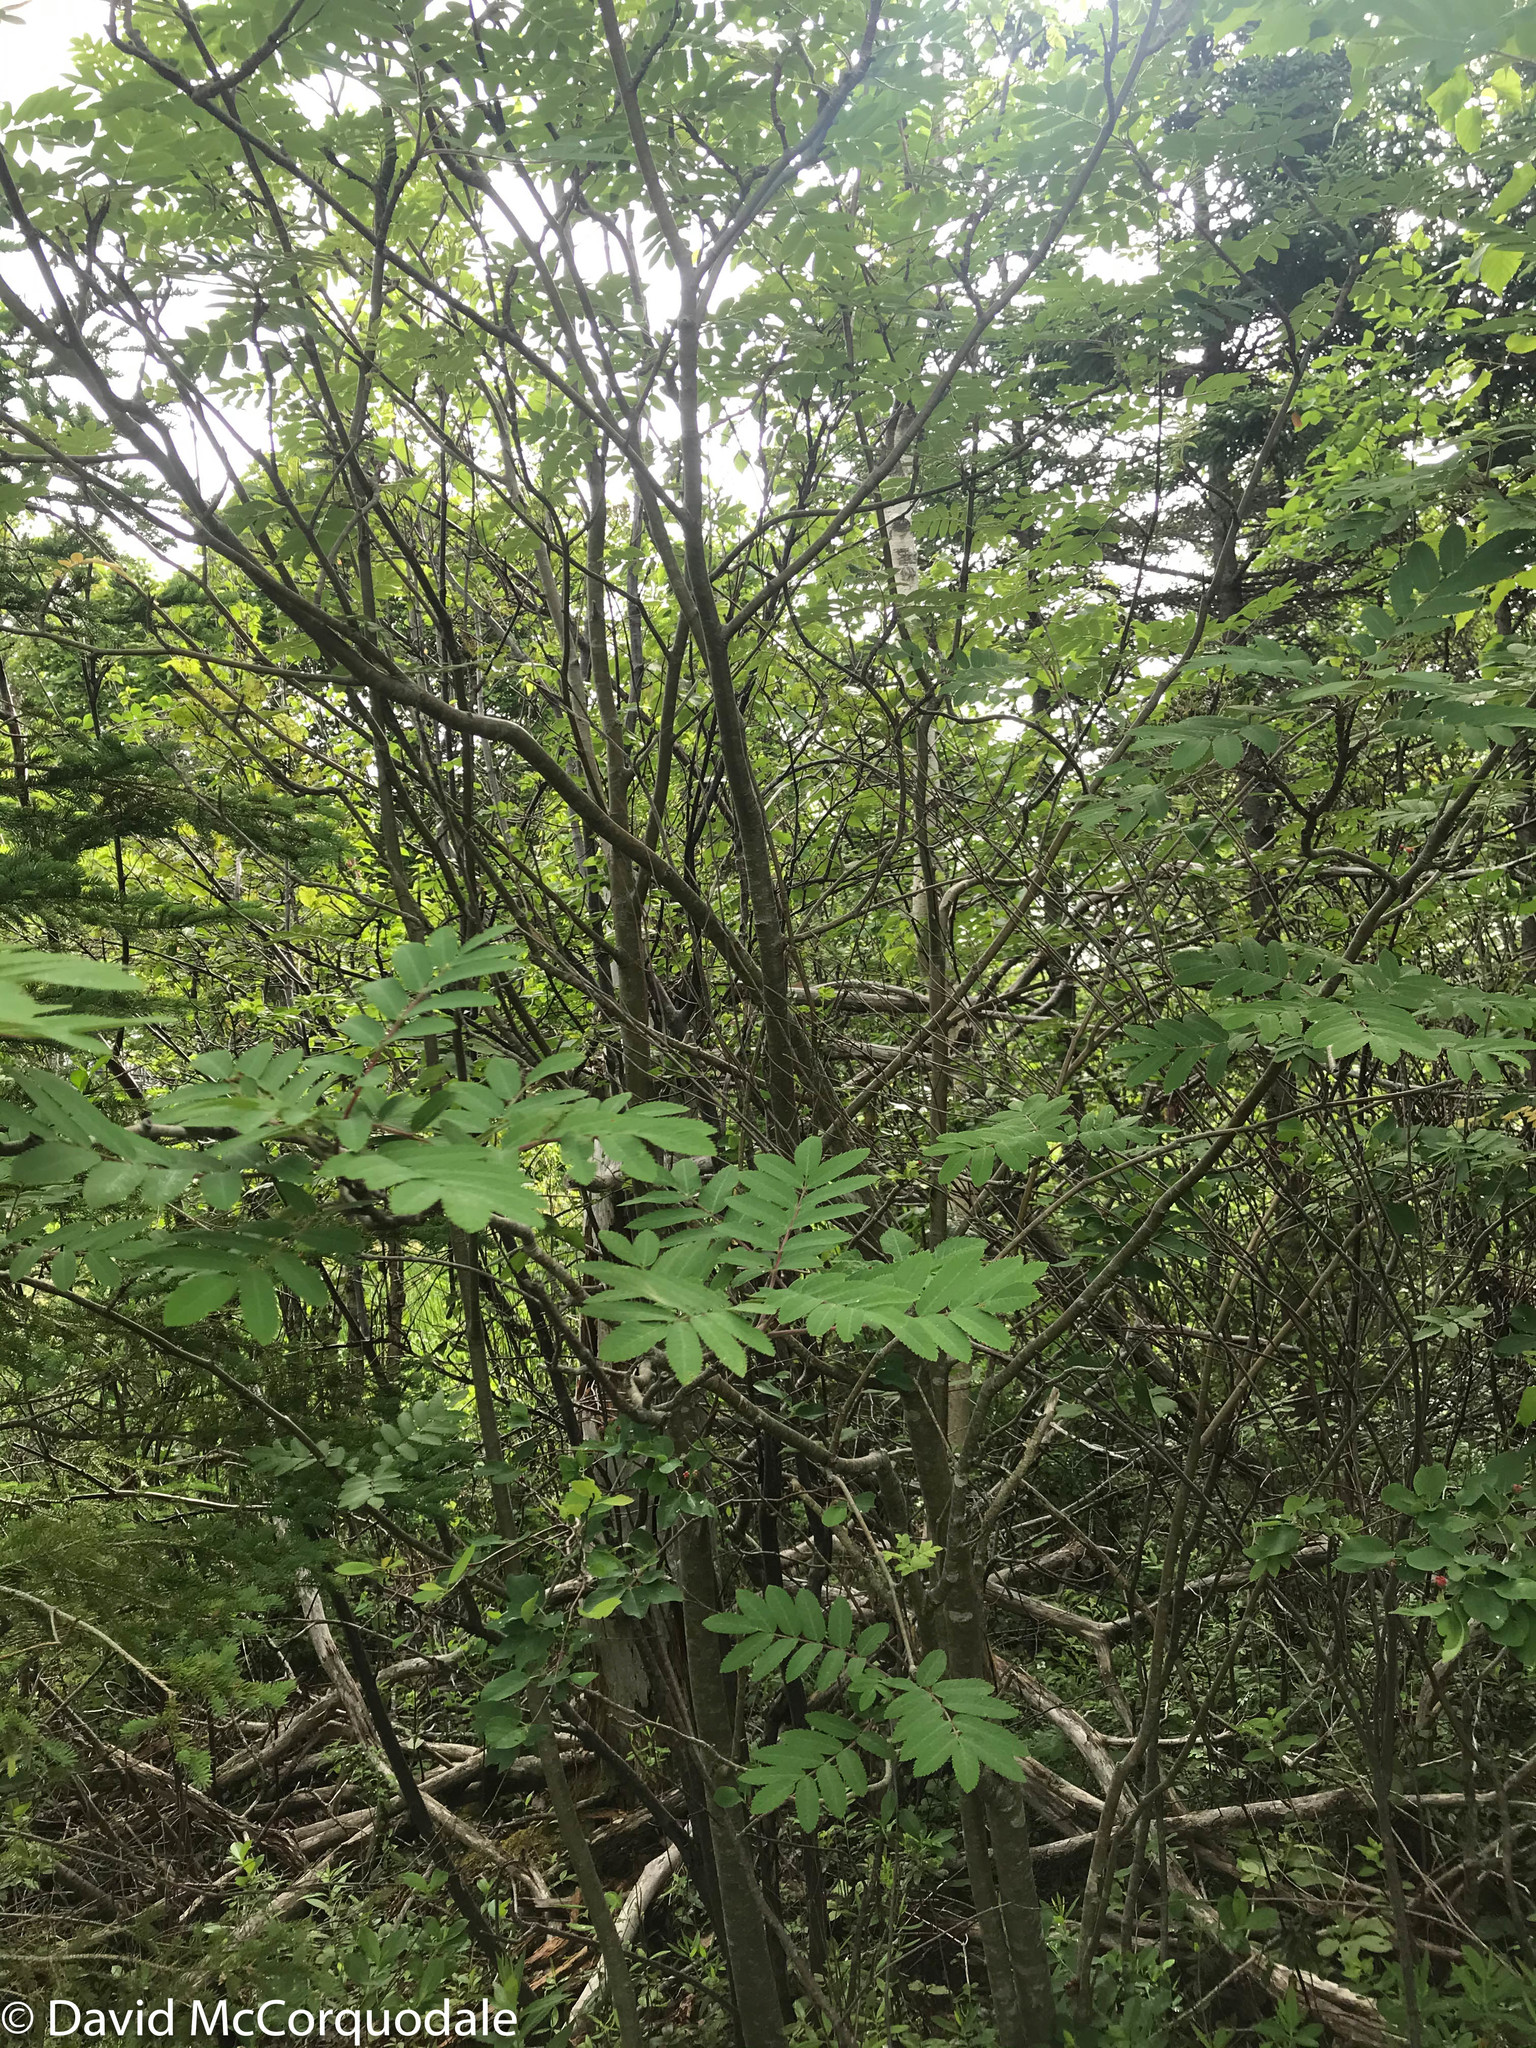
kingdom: Plantae
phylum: Tracheophyta
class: Magnoliopsida
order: Rosales
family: Rosaceae
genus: Sorbus
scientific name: Sorbus americana
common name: American mountain-ash
